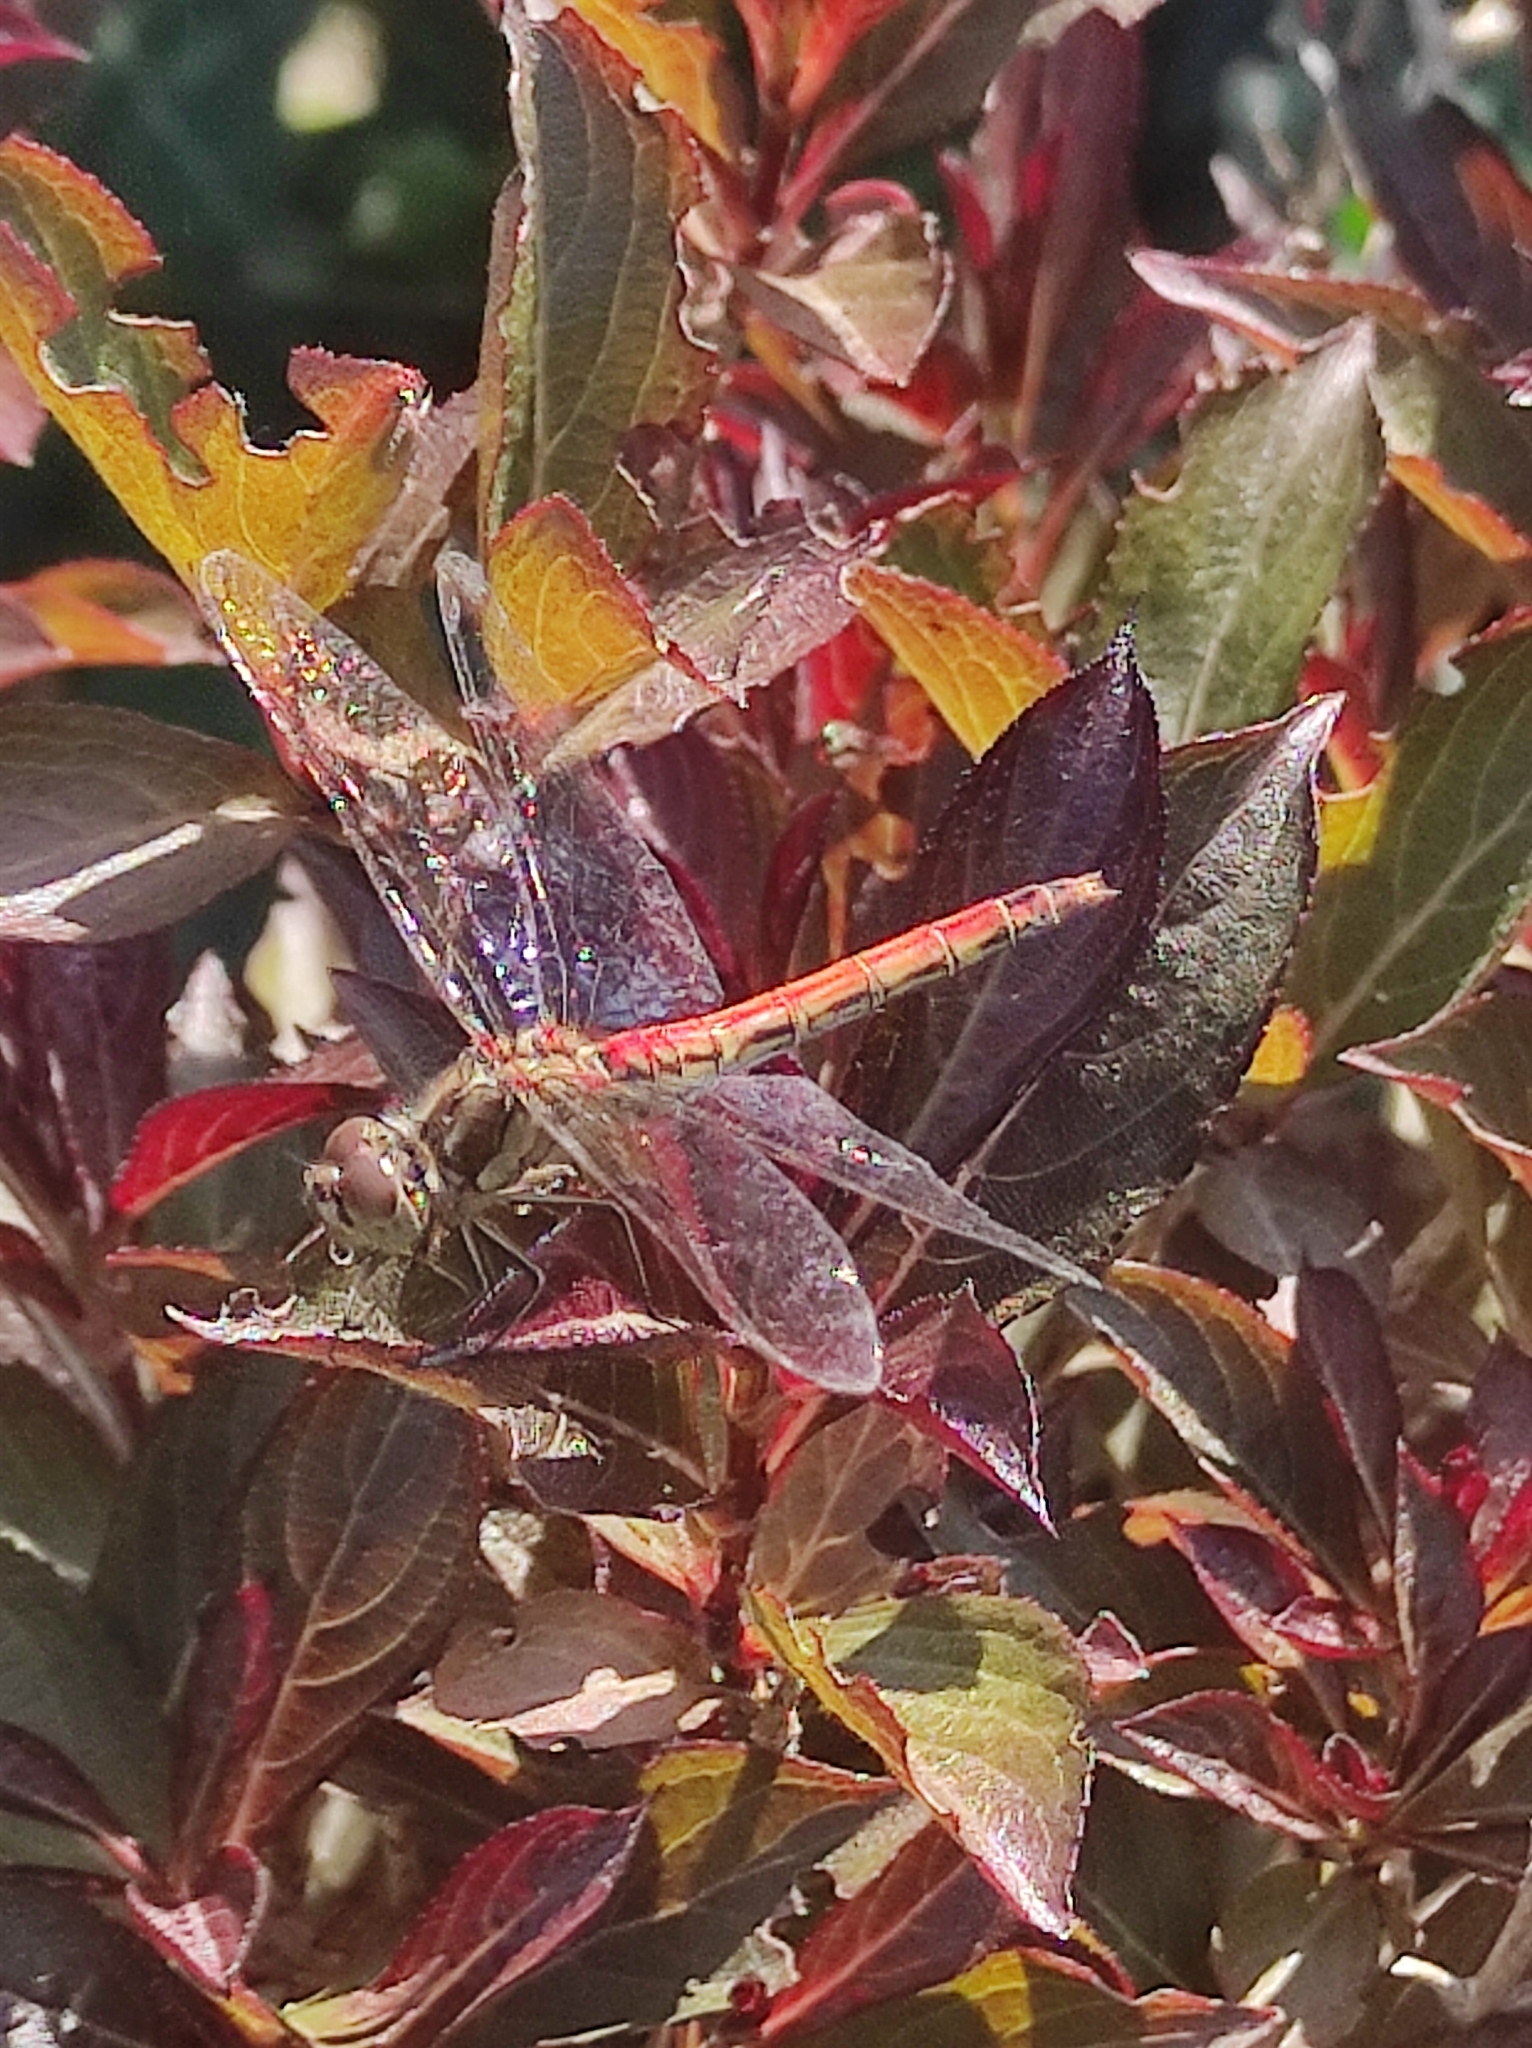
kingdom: Animalia
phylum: Arthropoda
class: Insecta
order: Odonata
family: Libellulidae
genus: Sympetrum
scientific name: Sympetrum vulgatum
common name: Vagrant darter
